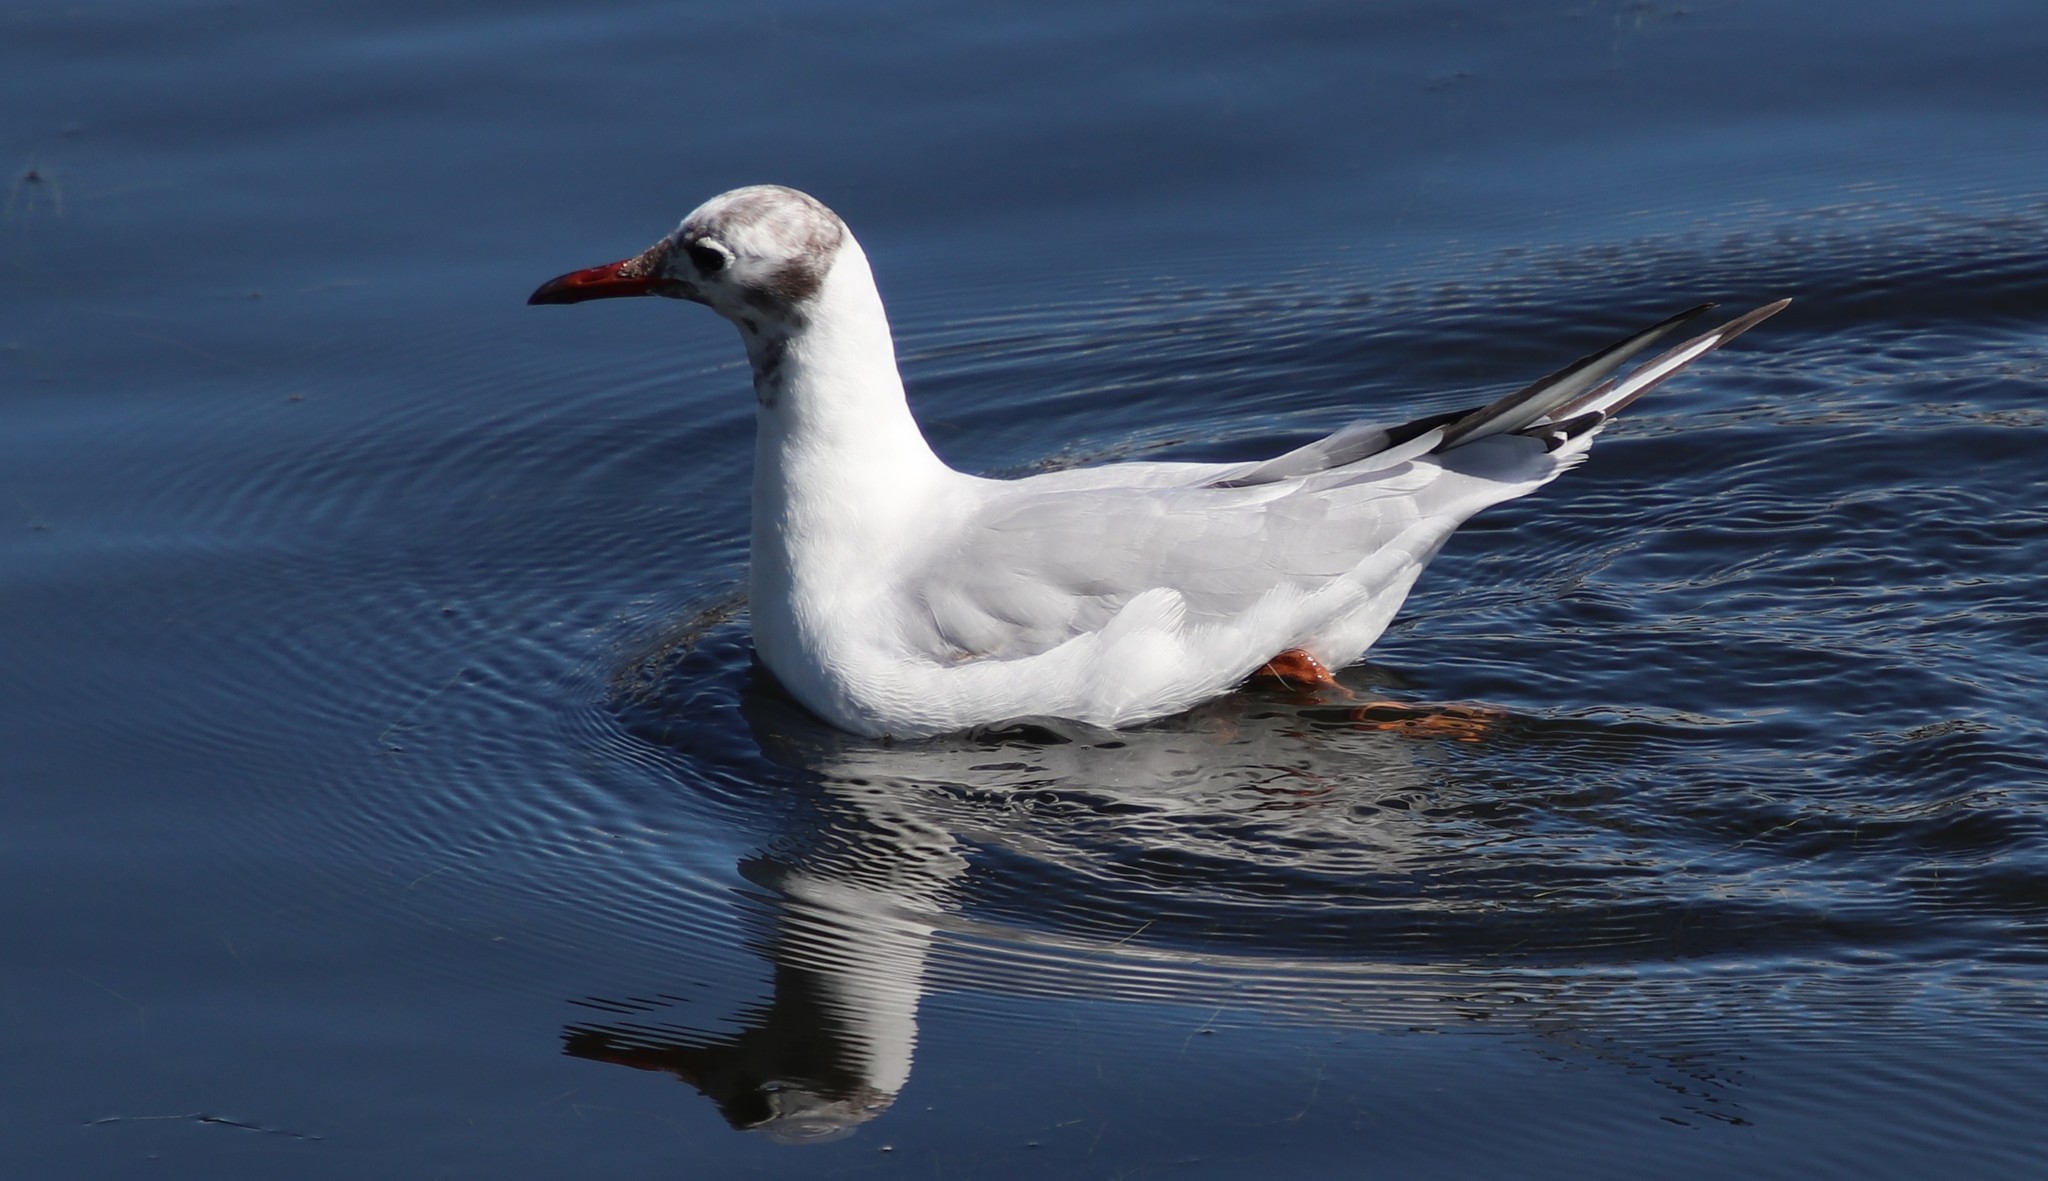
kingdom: Animalia
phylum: Chordata
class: Aves
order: Charadriiformes
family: Laridae
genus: Chroicocephalus
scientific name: Chroicocephalus ridibundus
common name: Black-headed gull
